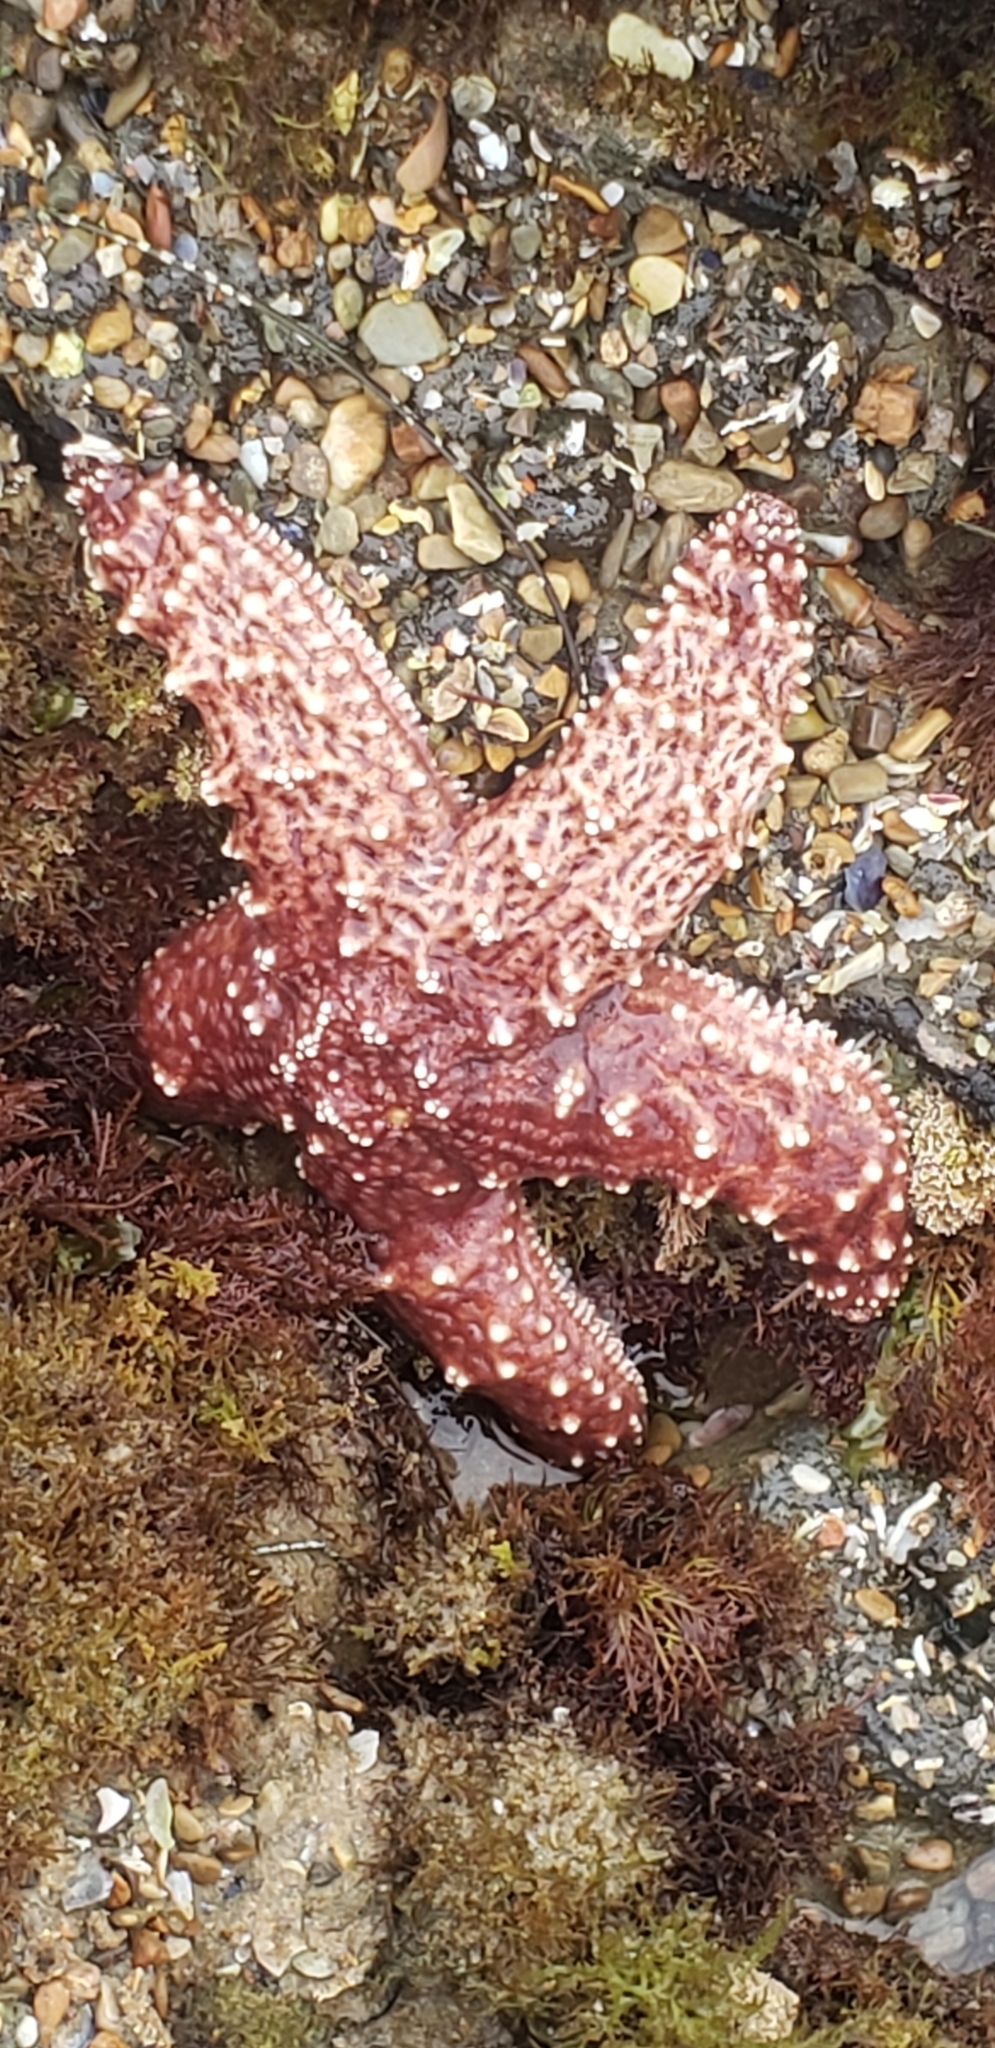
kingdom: Animalia
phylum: Echinodermata
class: Asteroidea
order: Forcipulatida
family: Asteriidae
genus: Pisaster
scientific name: Pisaster ochraceus
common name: Ochre stars
